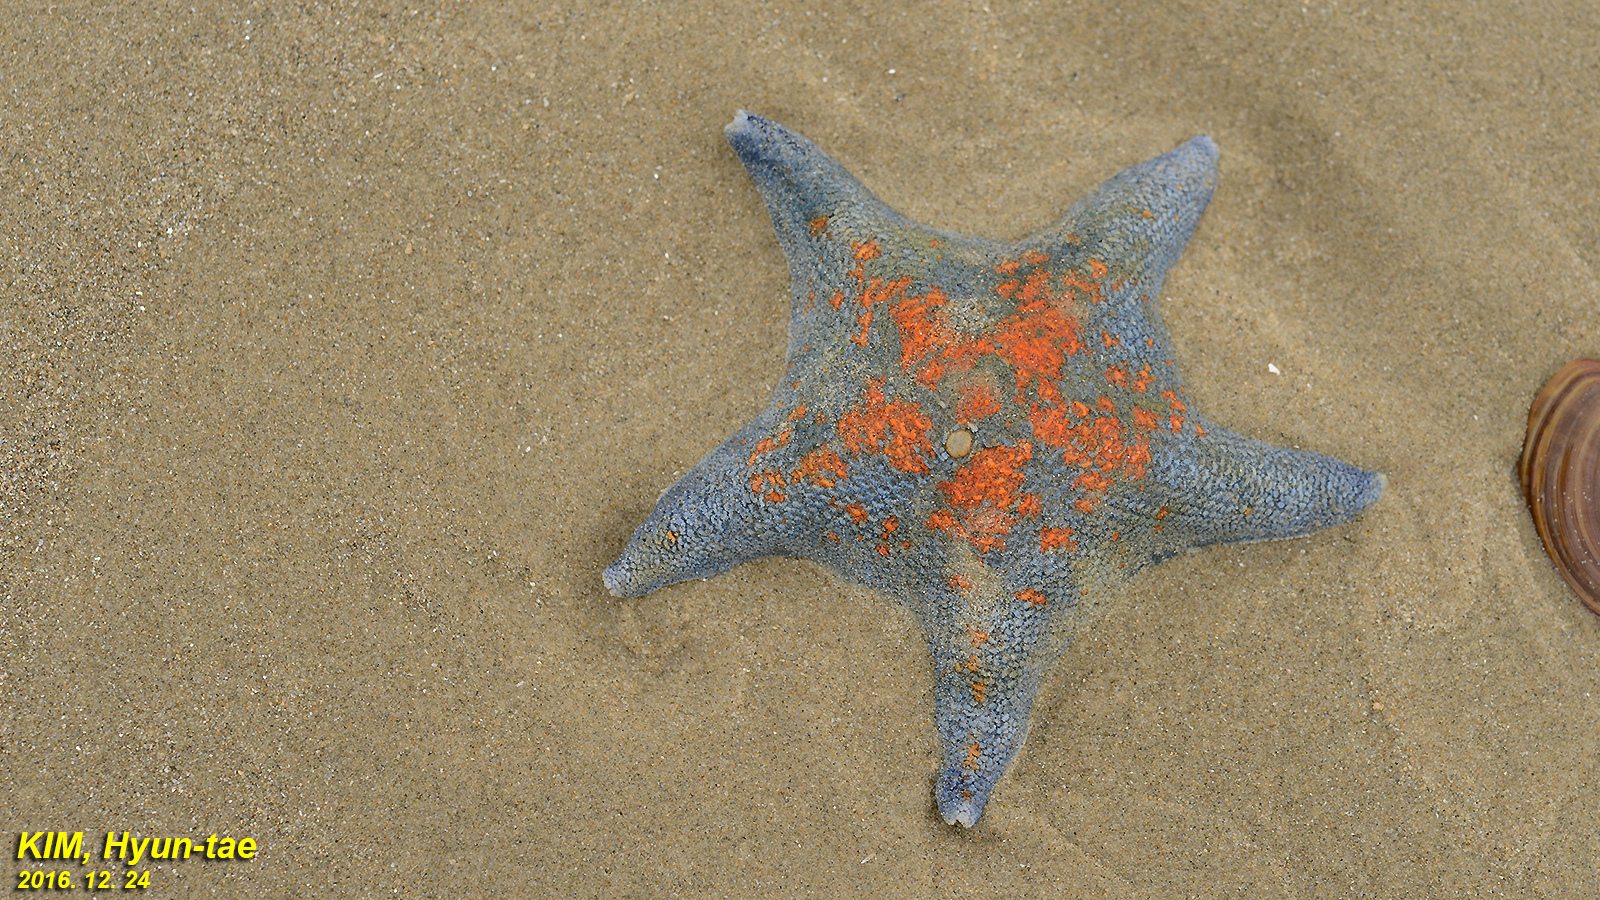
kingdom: Animalia
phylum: Echinodermata
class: Asteroidea
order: Valvatida
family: Asterinidae
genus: Patiria
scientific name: Patiria pectinifera
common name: Blue bat star
